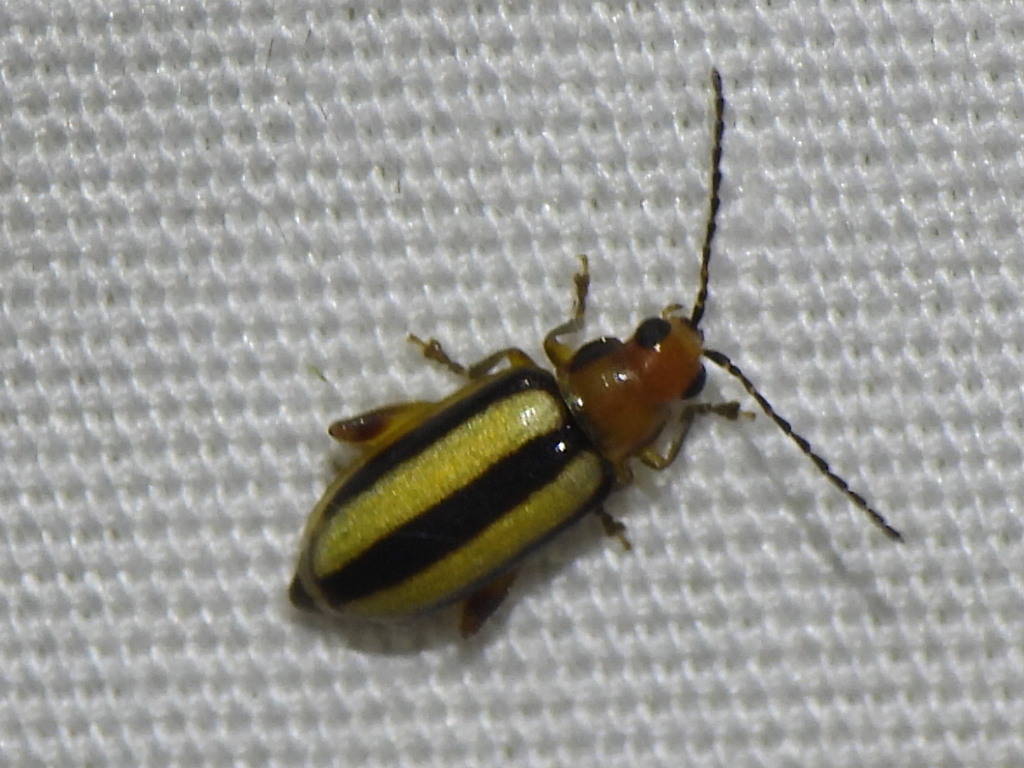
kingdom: Animalia
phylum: Arthropoda
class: Insecta
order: Coleoptera
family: Chrysomelidae
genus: Systena
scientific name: Systena gracilenta
